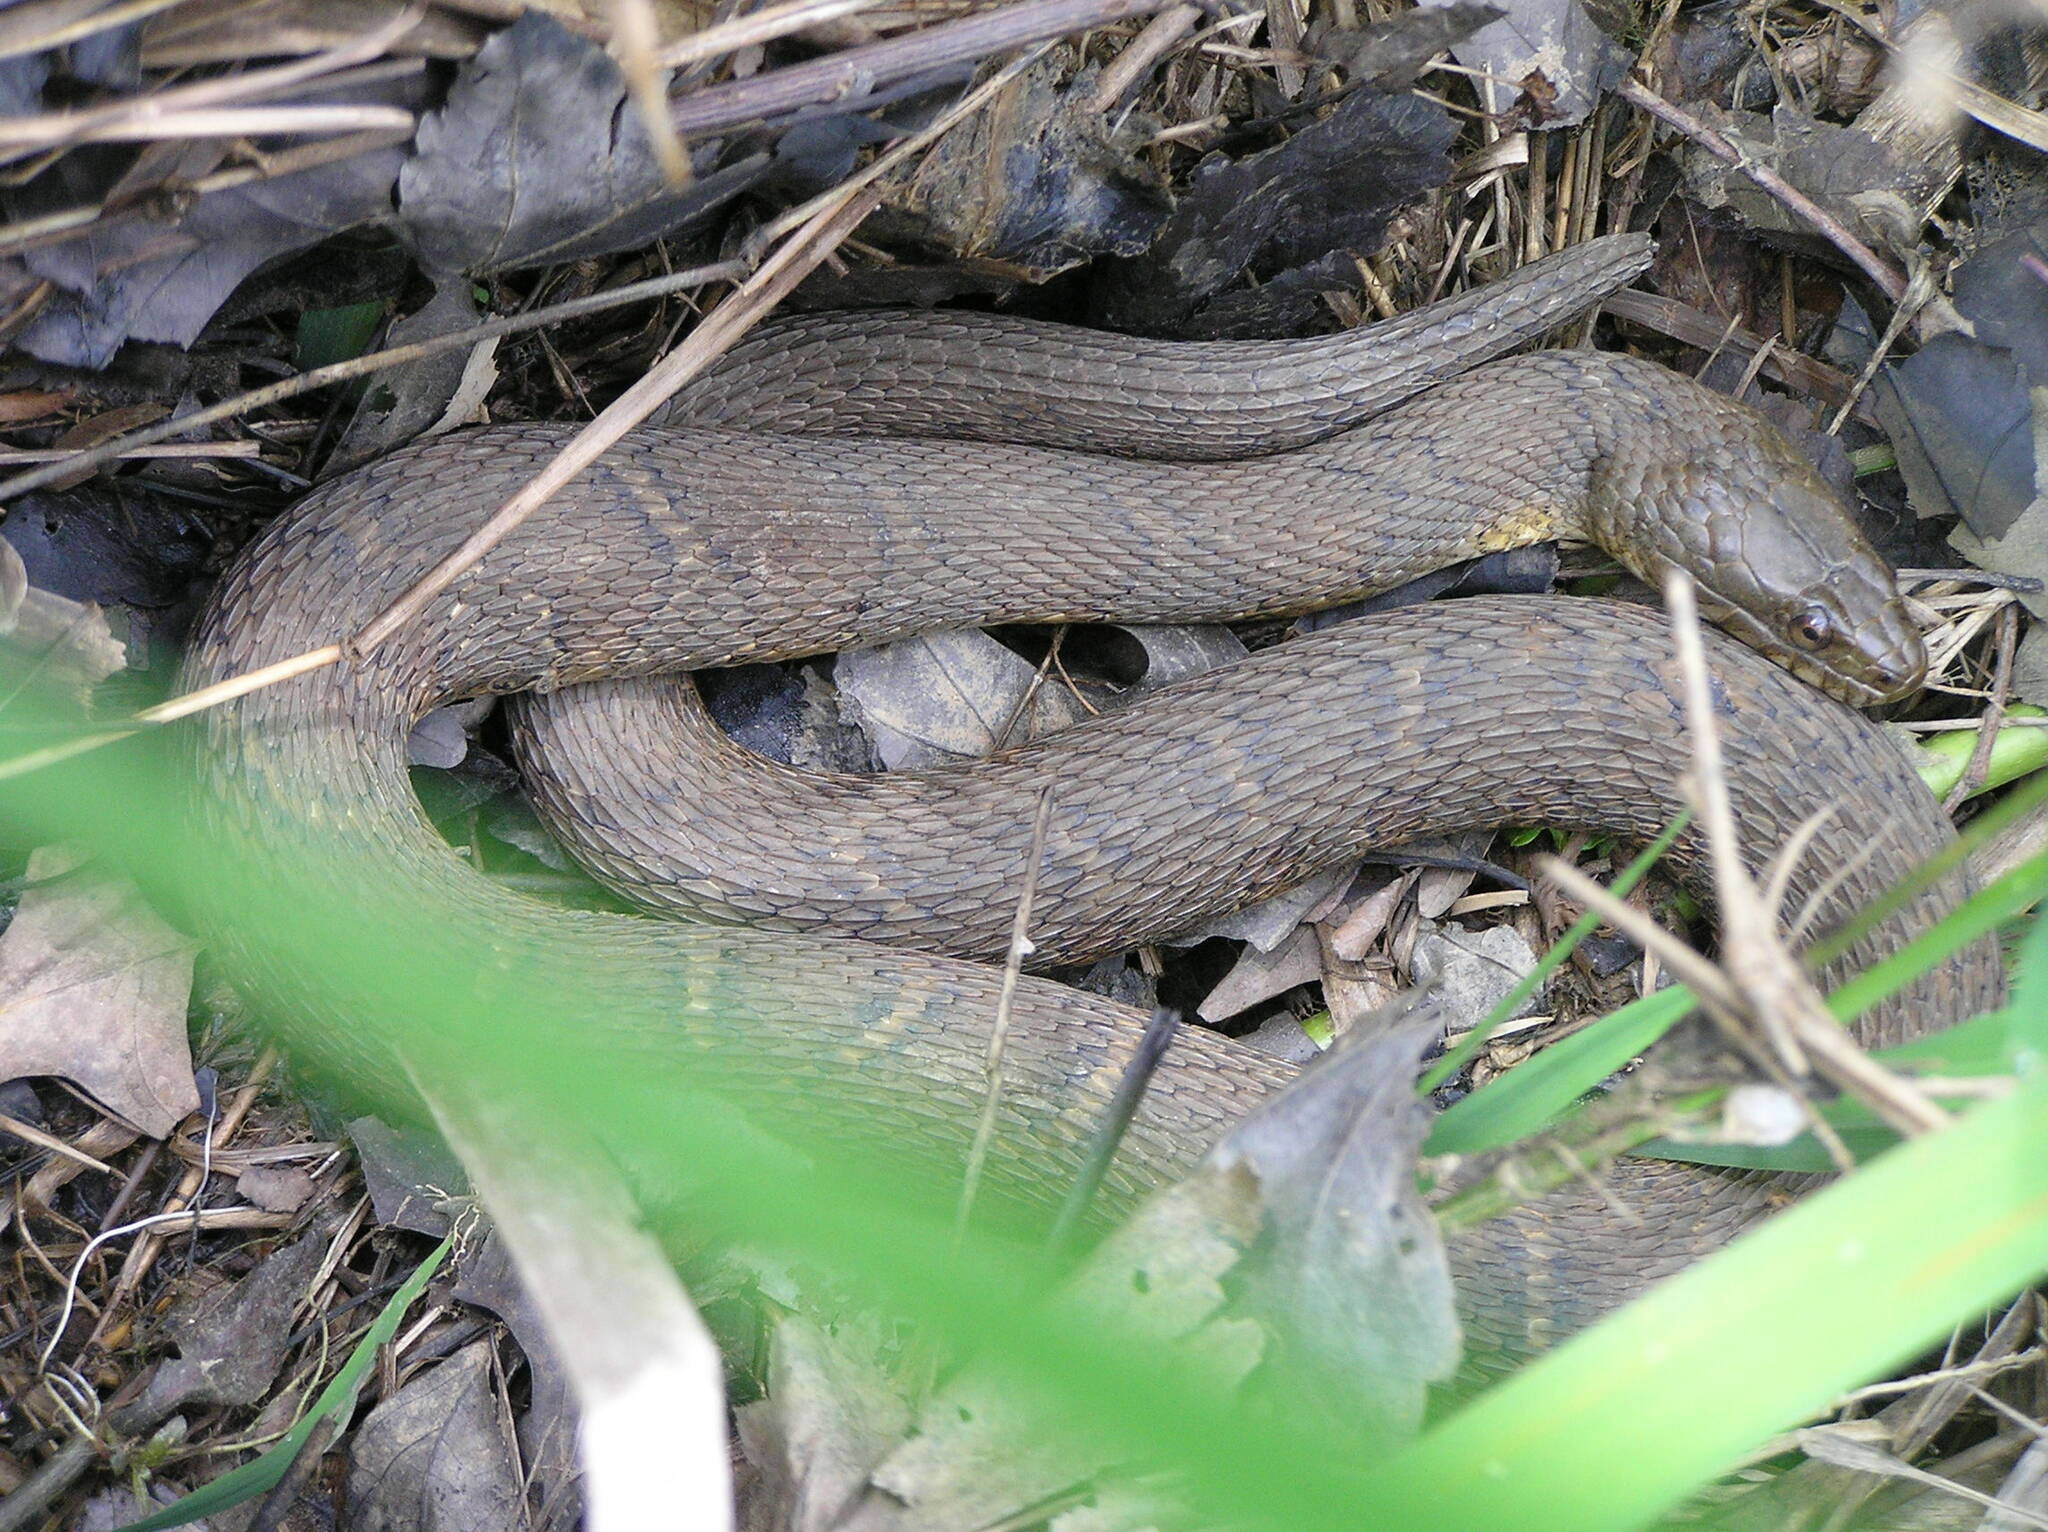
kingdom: Animalia
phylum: Chordata
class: Squamata
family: Colubridae
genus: Nerodia
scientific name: Nerodia sipedon
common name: Northern water snake
